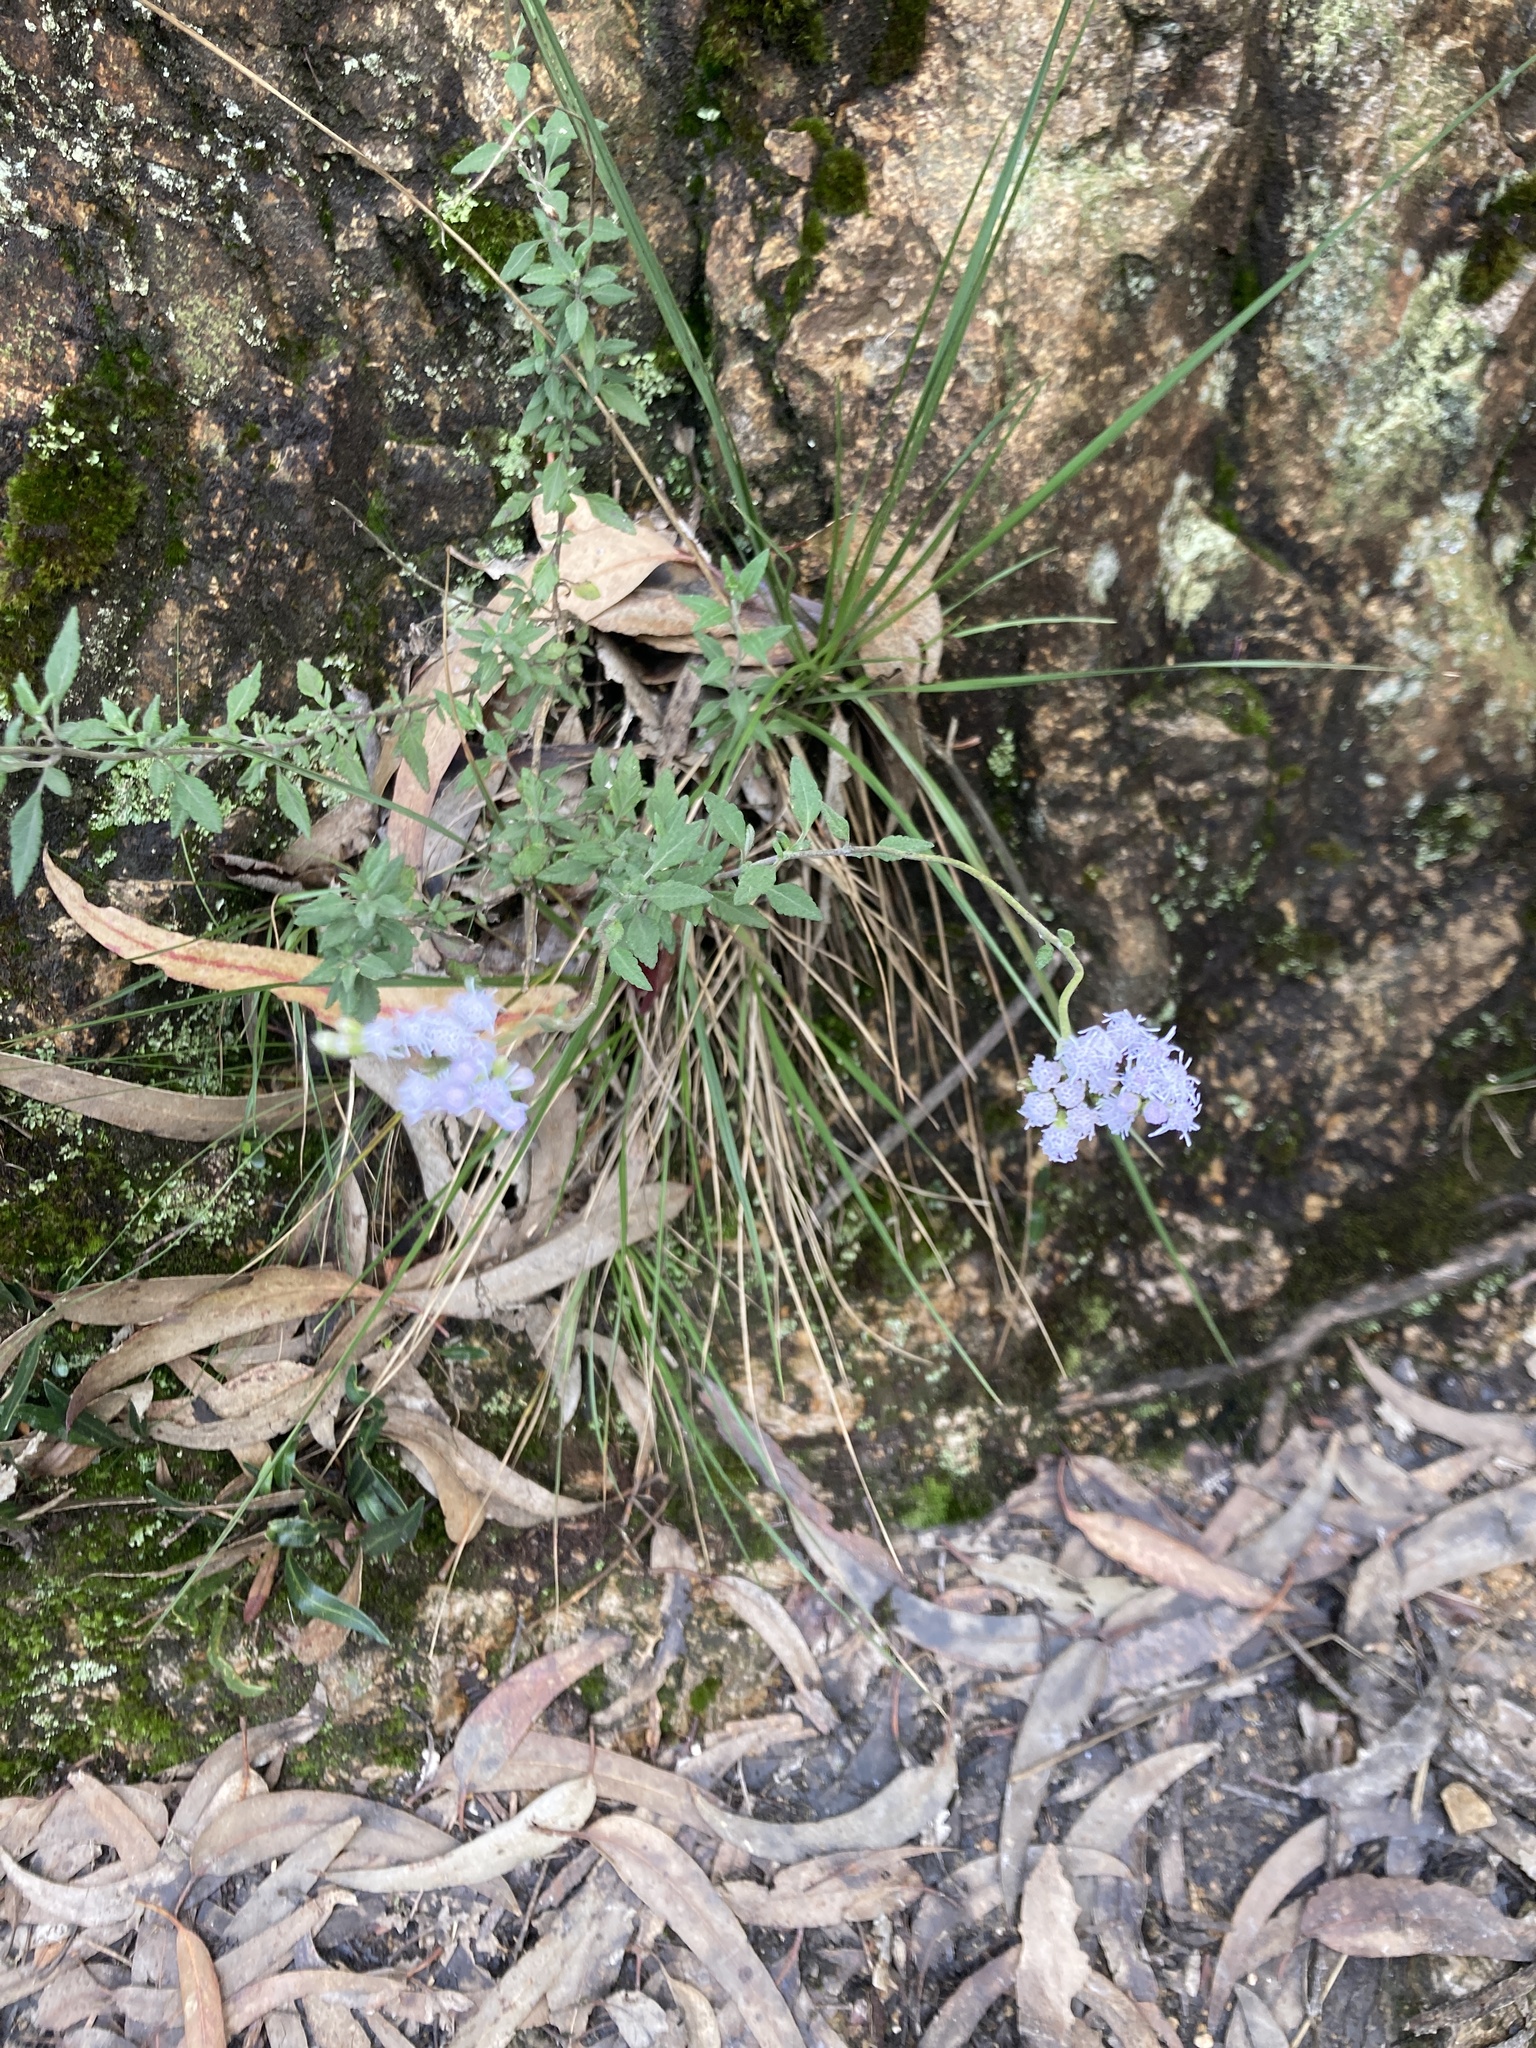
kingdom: Plantae
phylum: Tracheophyta
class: Magnoliopsida
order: Asterales
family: Asteraceae
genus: Lourteigia
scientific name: Lourteigia lanulata
